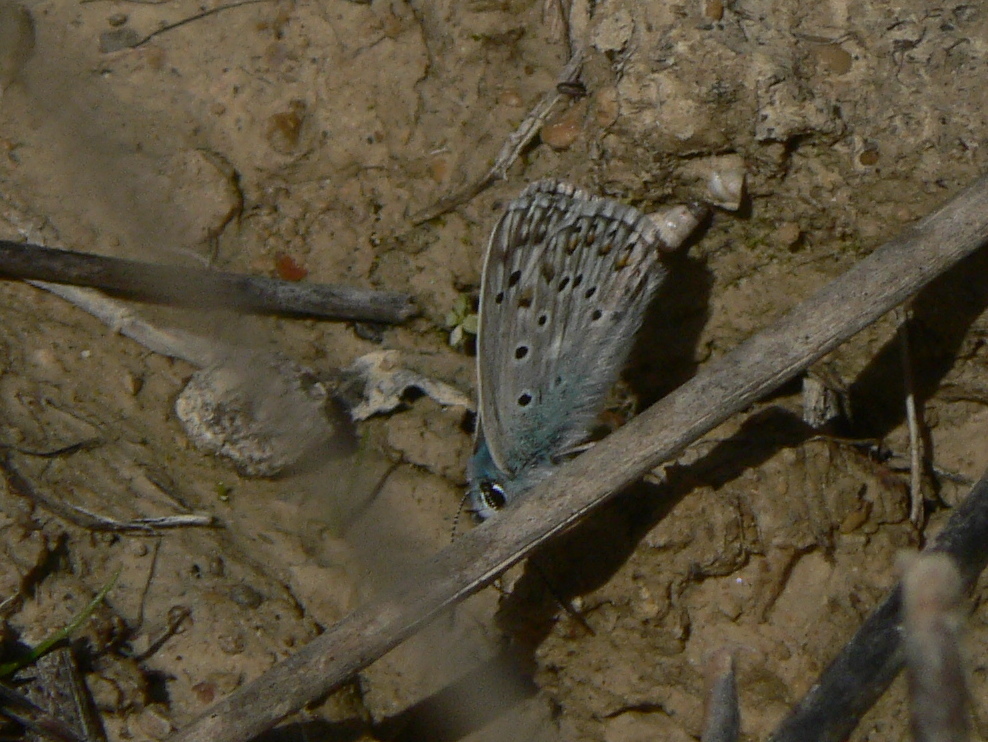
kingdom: Animalia
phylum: Arthropoda
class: Insecta
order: Lepidoptera
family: Lycaenidae
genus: Lysandra
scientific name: Lysandra hispana
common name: Provence chalkhill blue
